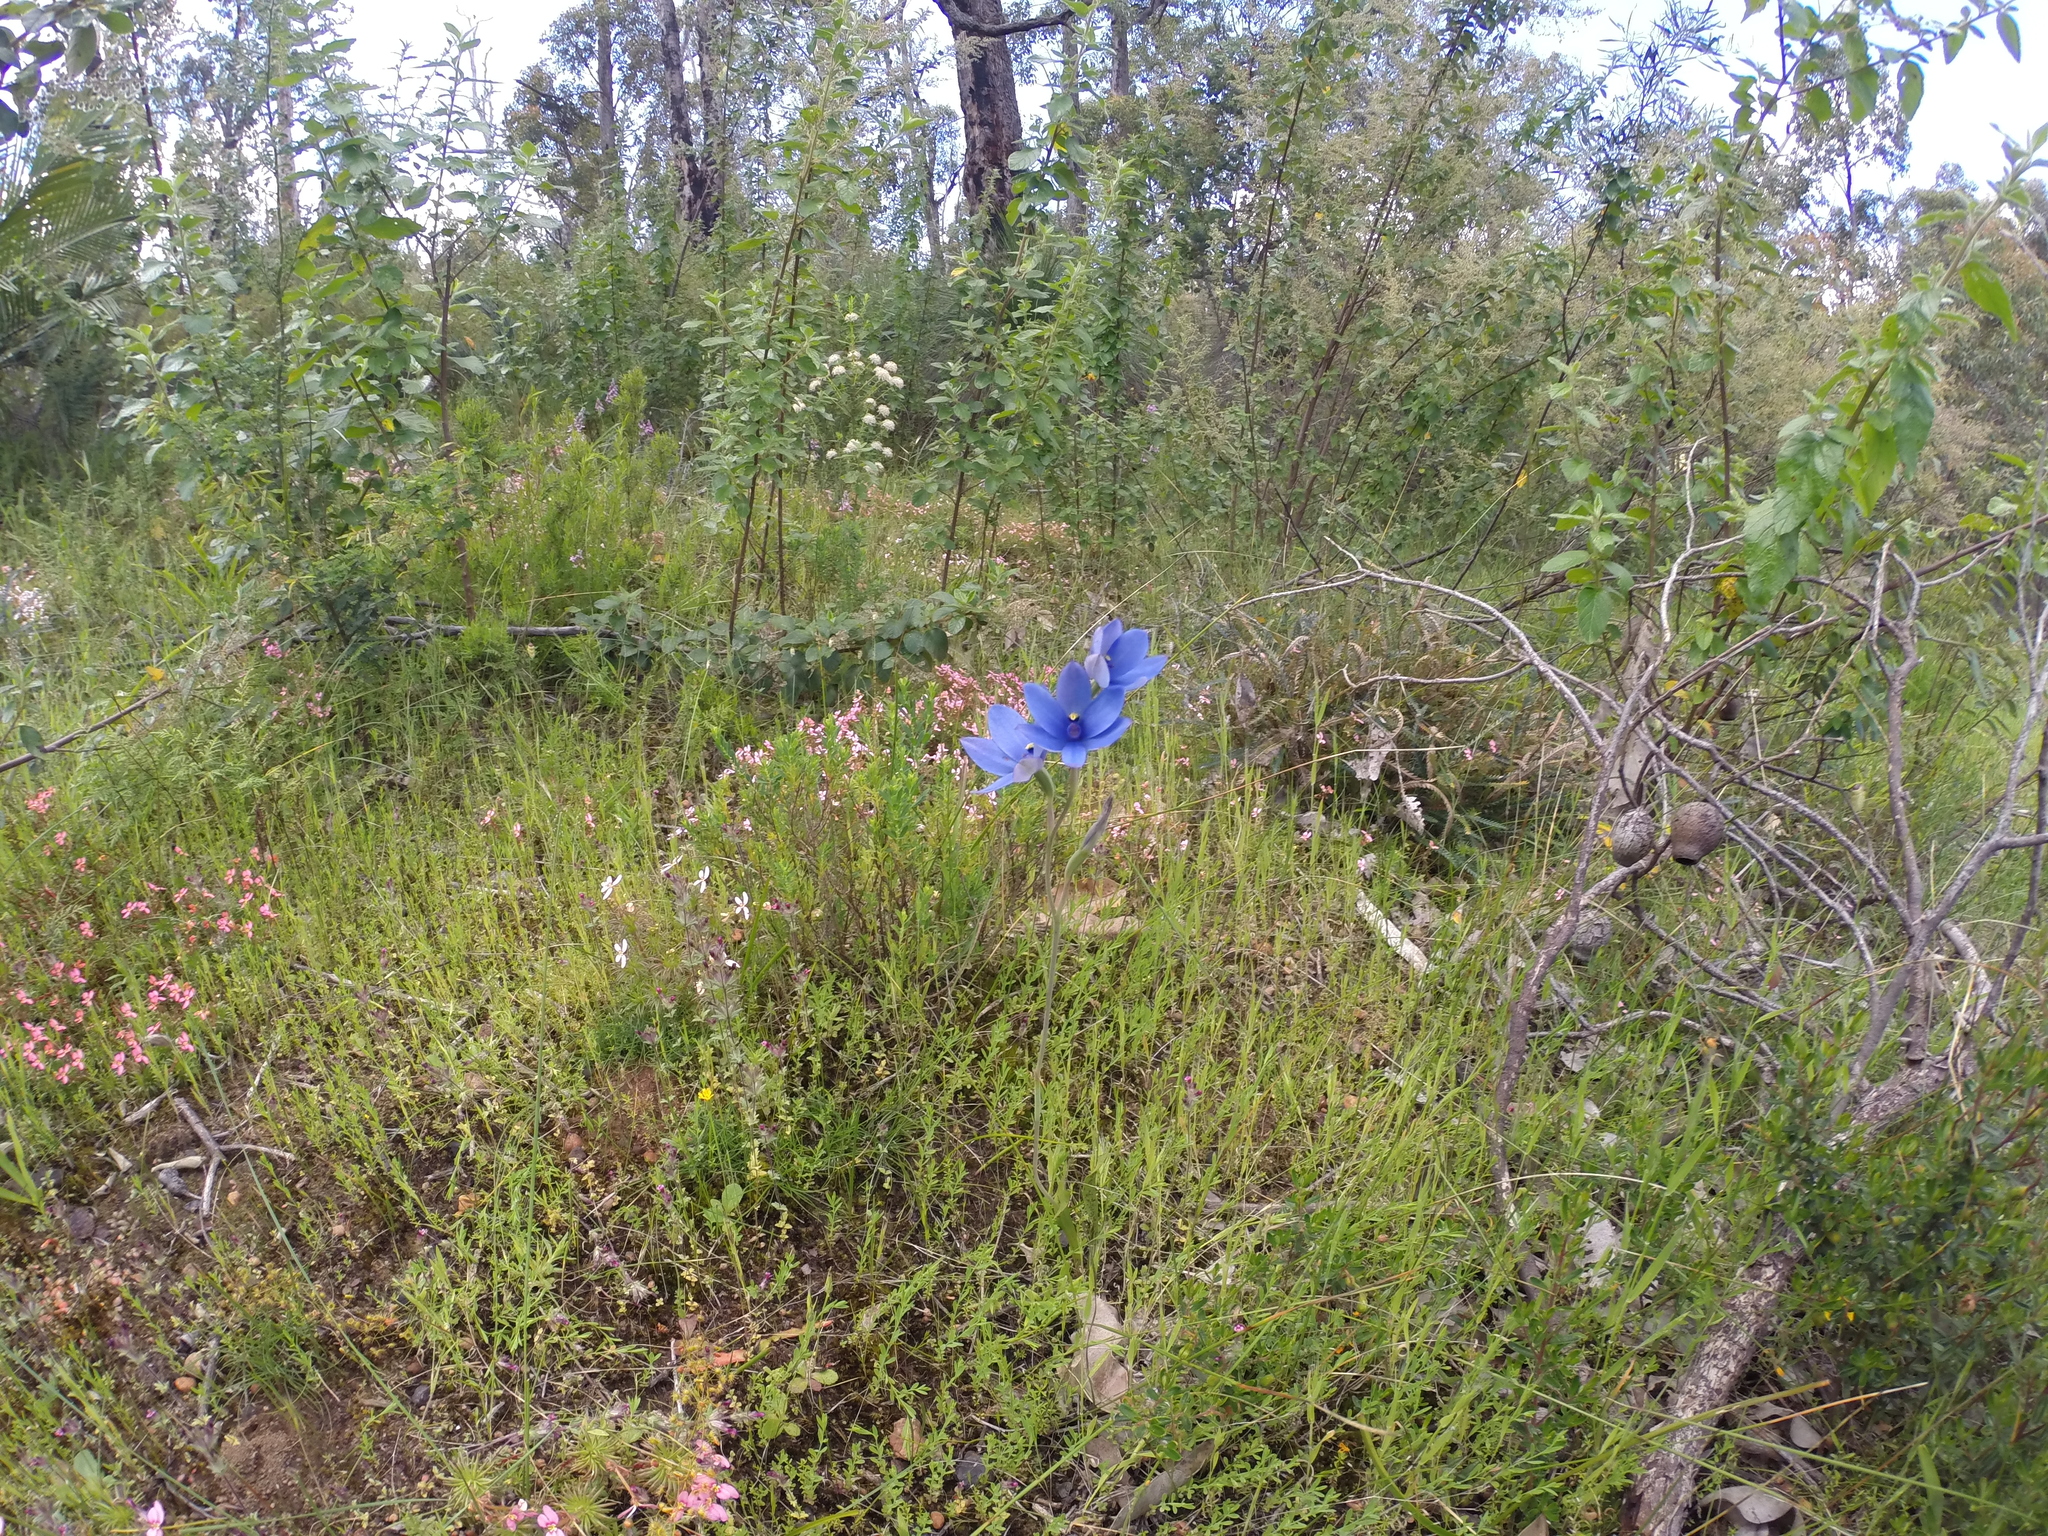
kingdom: Plantae
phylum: Tracheophyta
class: Liliopsida
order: Asparagales
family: Orchidaceae
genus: Thelymitra
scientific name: Thelymitra crinita
